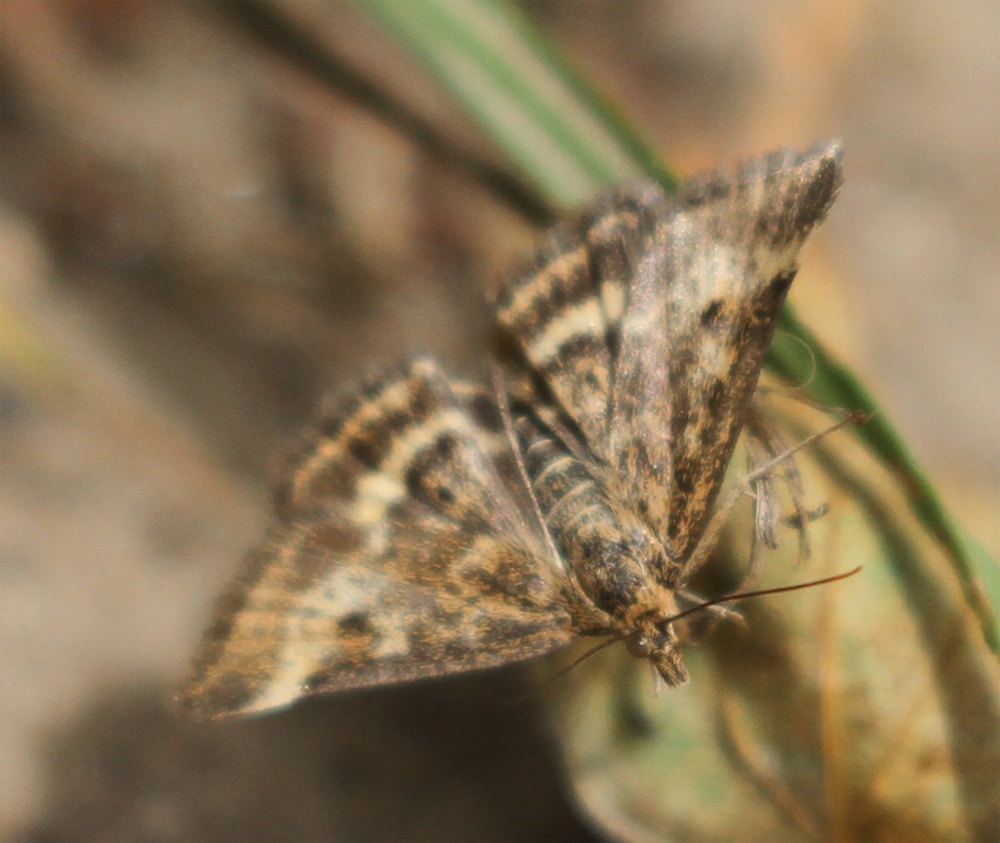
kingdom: Animalia
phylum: Arthropoda
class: Insecta
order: Lepidoptera
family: Crambidae
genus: Pyrausta
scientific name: Pyrausta despicata
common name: Straw-barred pearl
